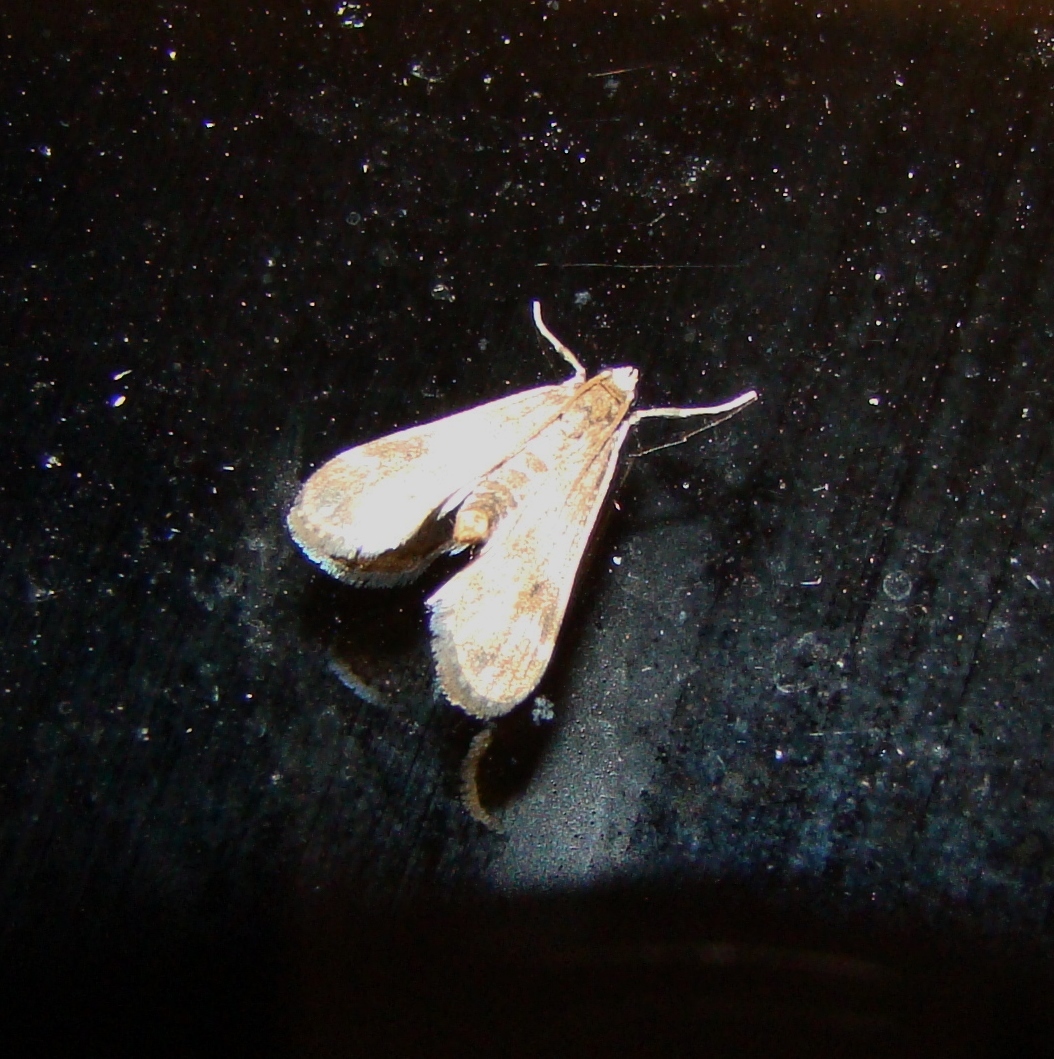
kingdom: Animalia
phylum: Arthropoda
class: Insecta
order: Lepidoptera
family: Crambidae
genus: Hygraula
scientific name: Hygraula nitens
